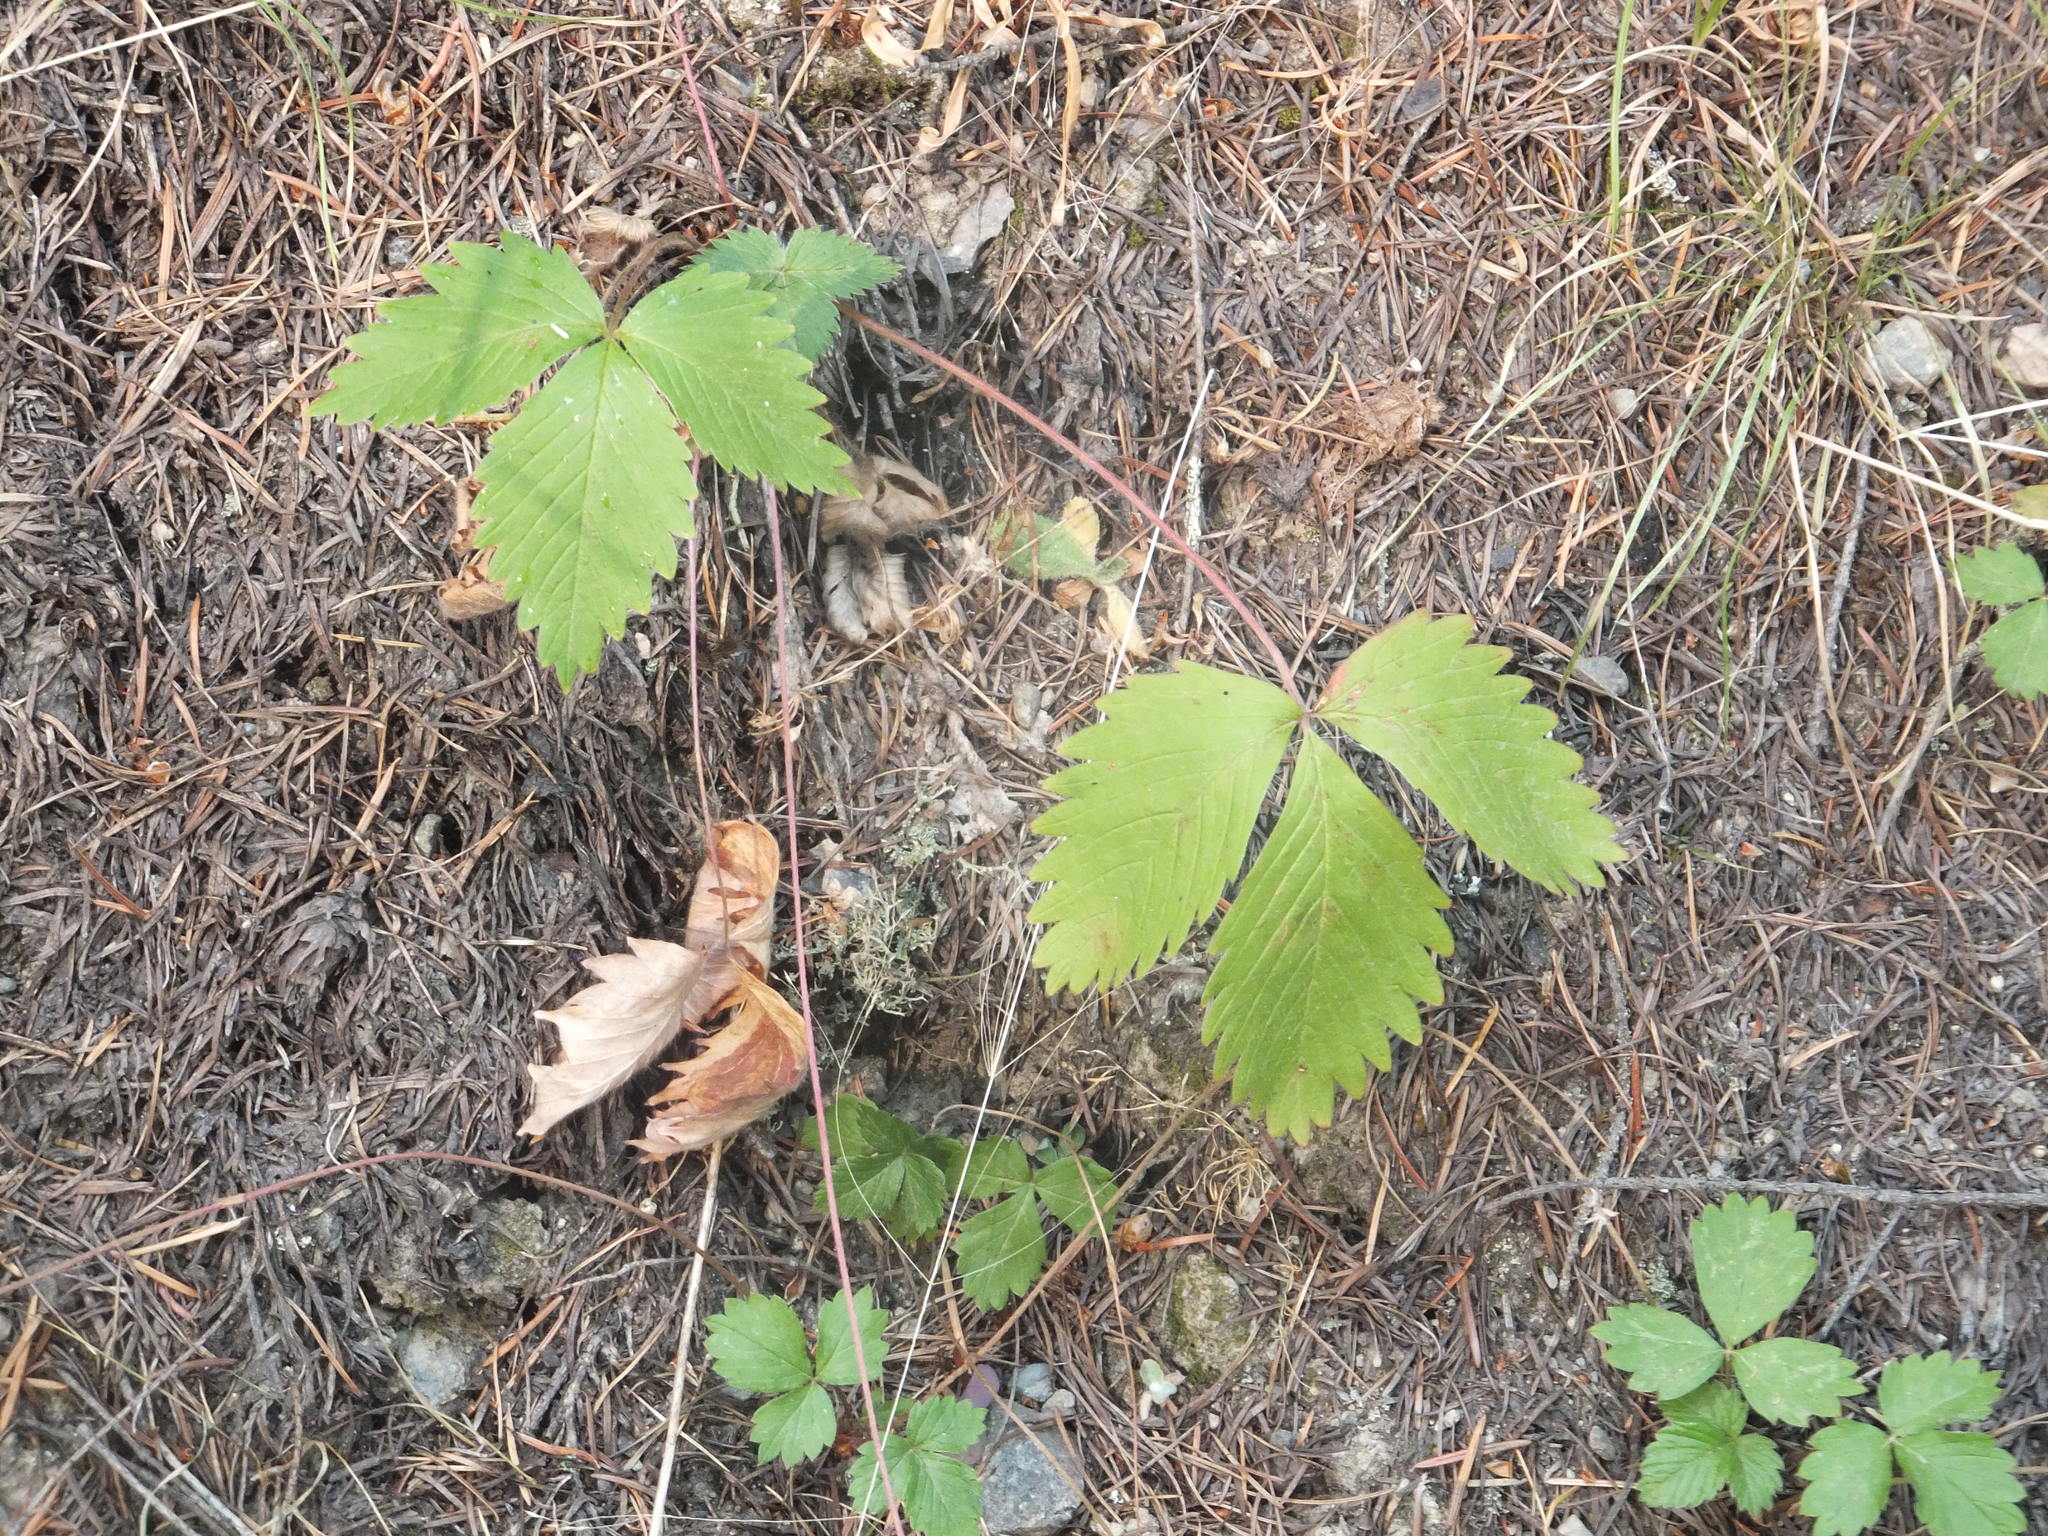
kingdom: Plantae
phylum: Tracheophyta
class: Magnoliopsida
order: Rosales
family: Rosaceae
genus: Fragaria
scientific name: Fragaria vesca
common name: Wild strawberry
